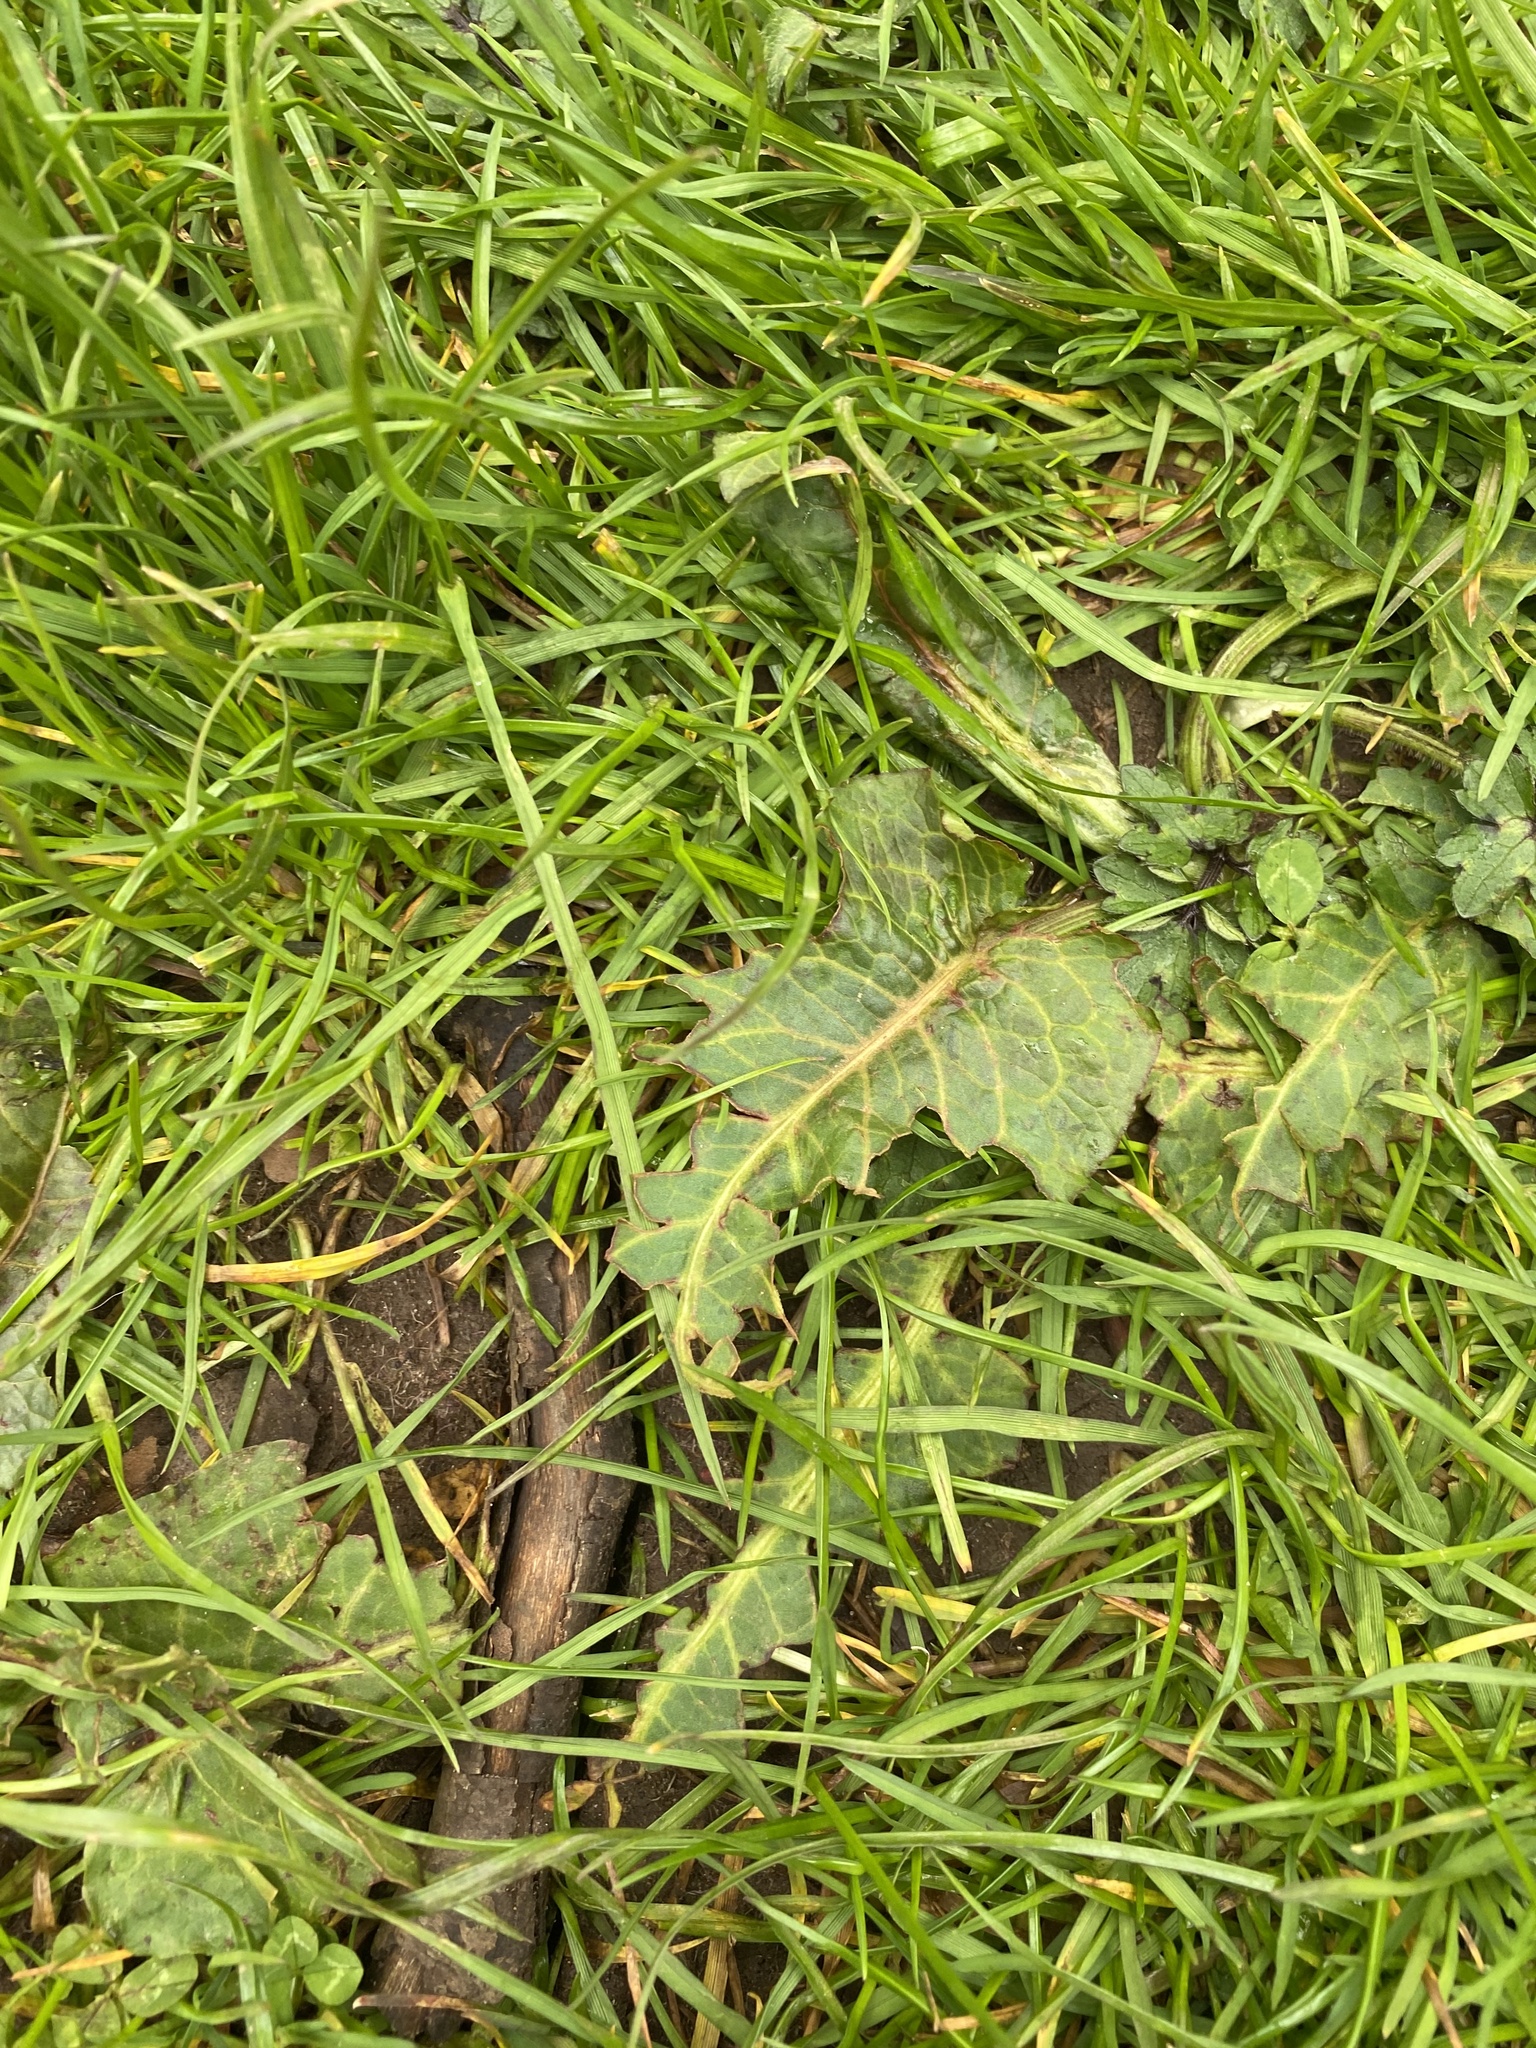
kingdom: Plantae
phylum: Tracheophyta
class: Magnoliopsida
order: Caryophyllales
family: Polygonaceae
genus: Rumex
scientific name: Rumex obtusifolius
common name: Bitter dock
